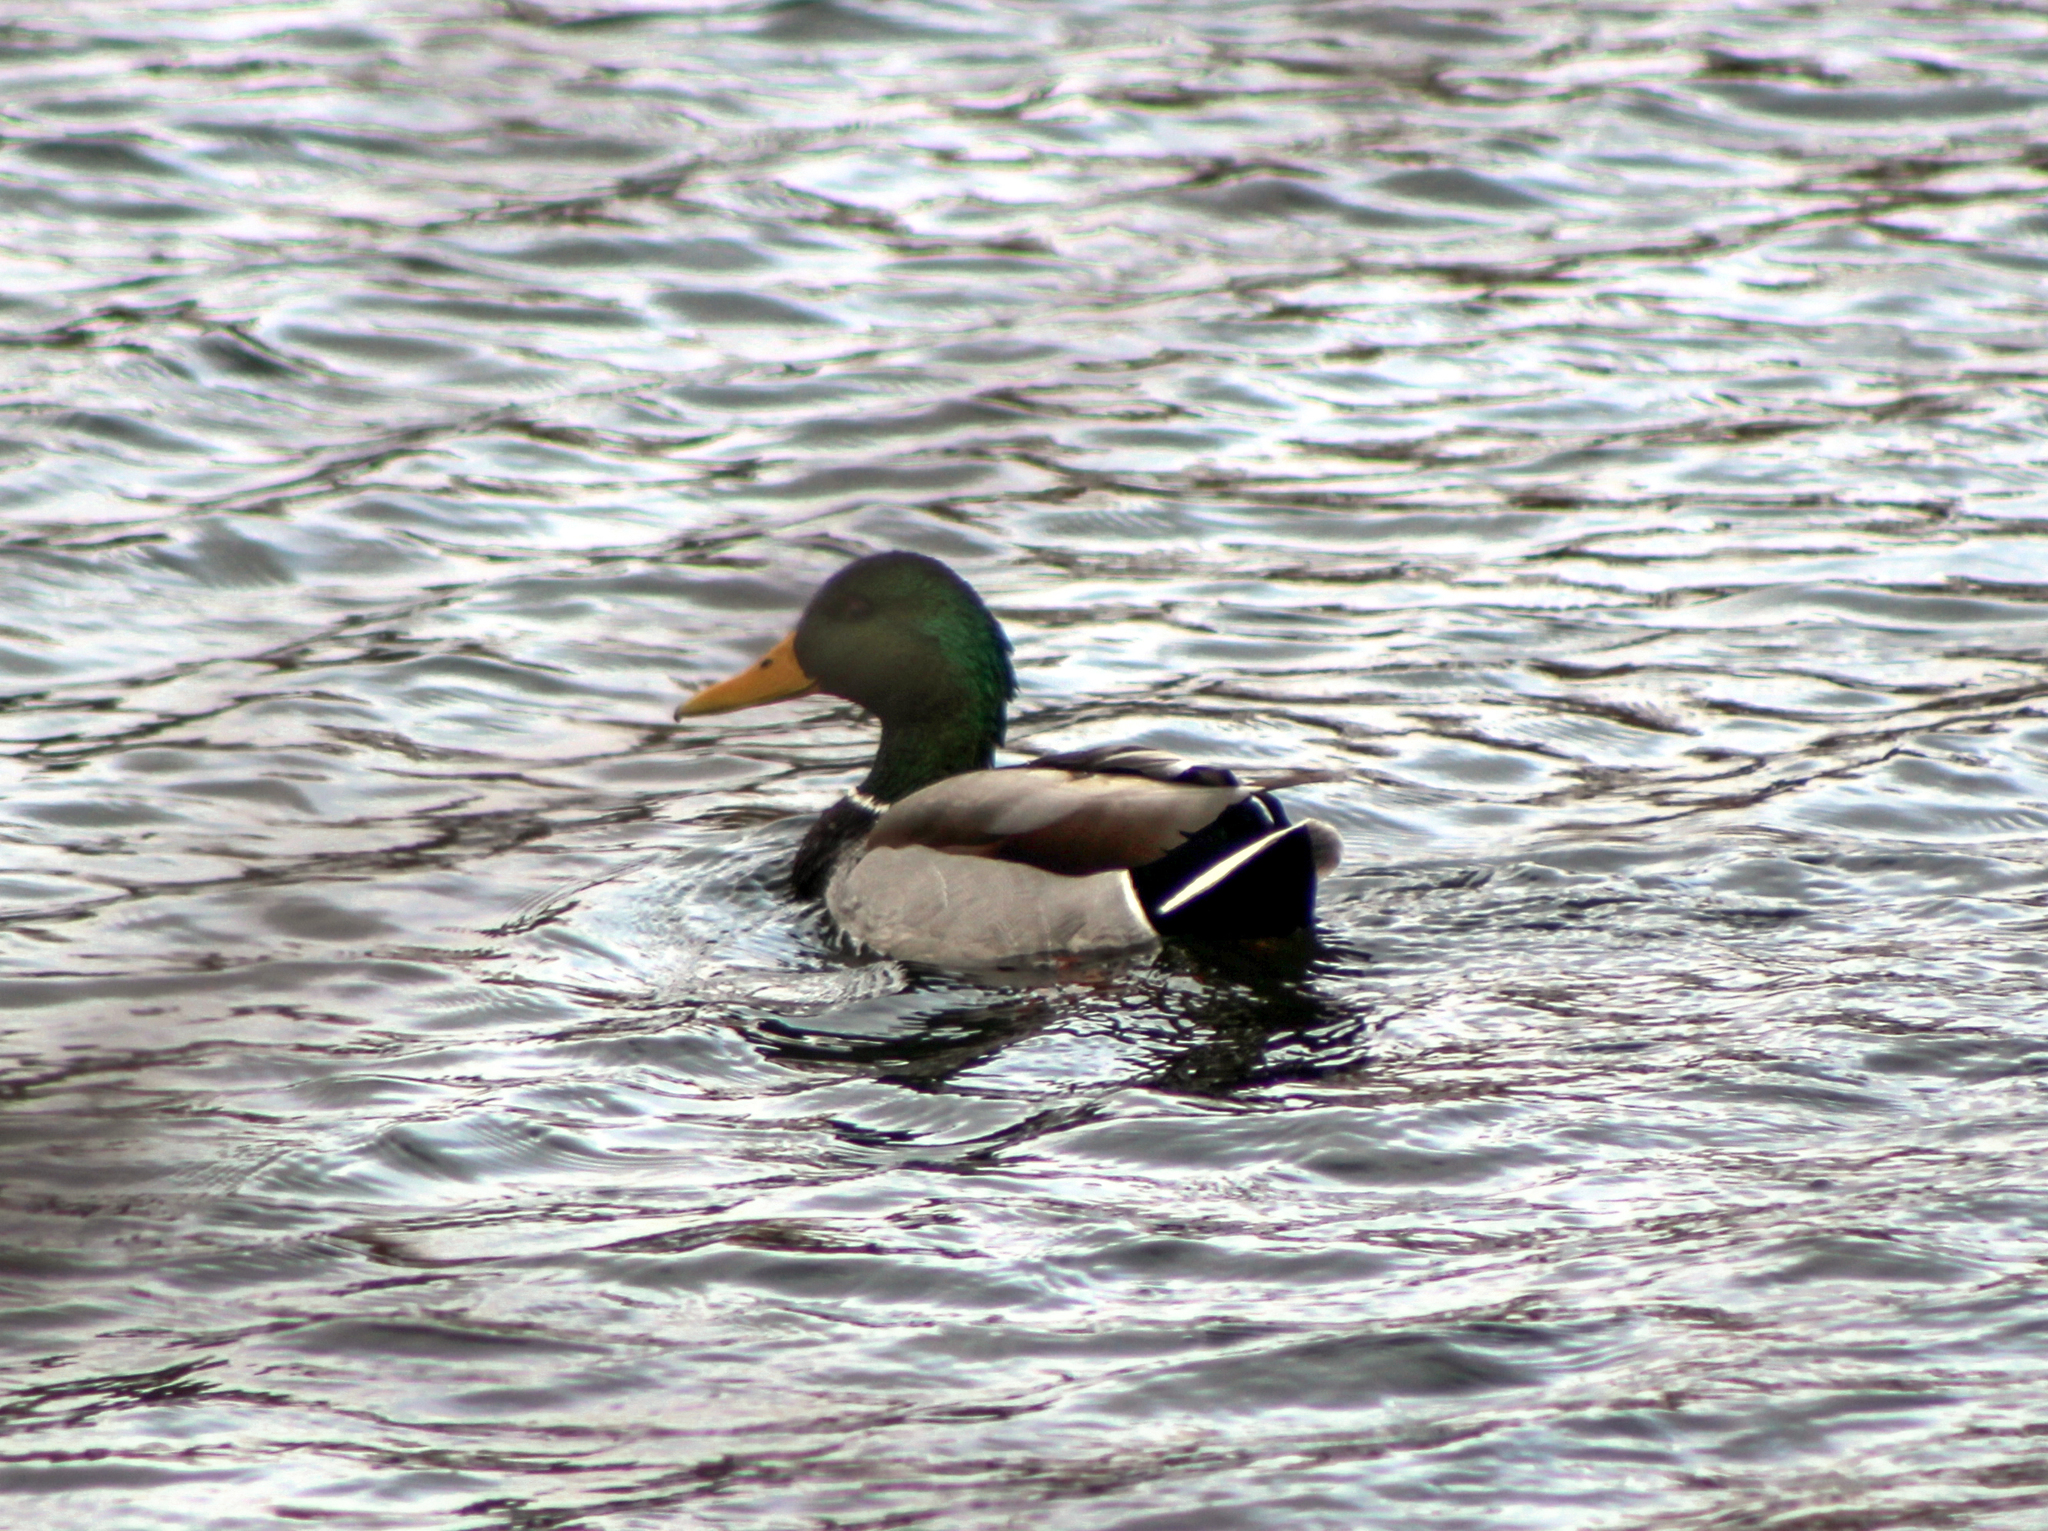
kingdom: Animalia
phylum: Chordata
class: Aves
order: Anseriformes
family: Anatidae
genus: Anas
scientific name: Anas platyrhynchos
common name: Mallard
